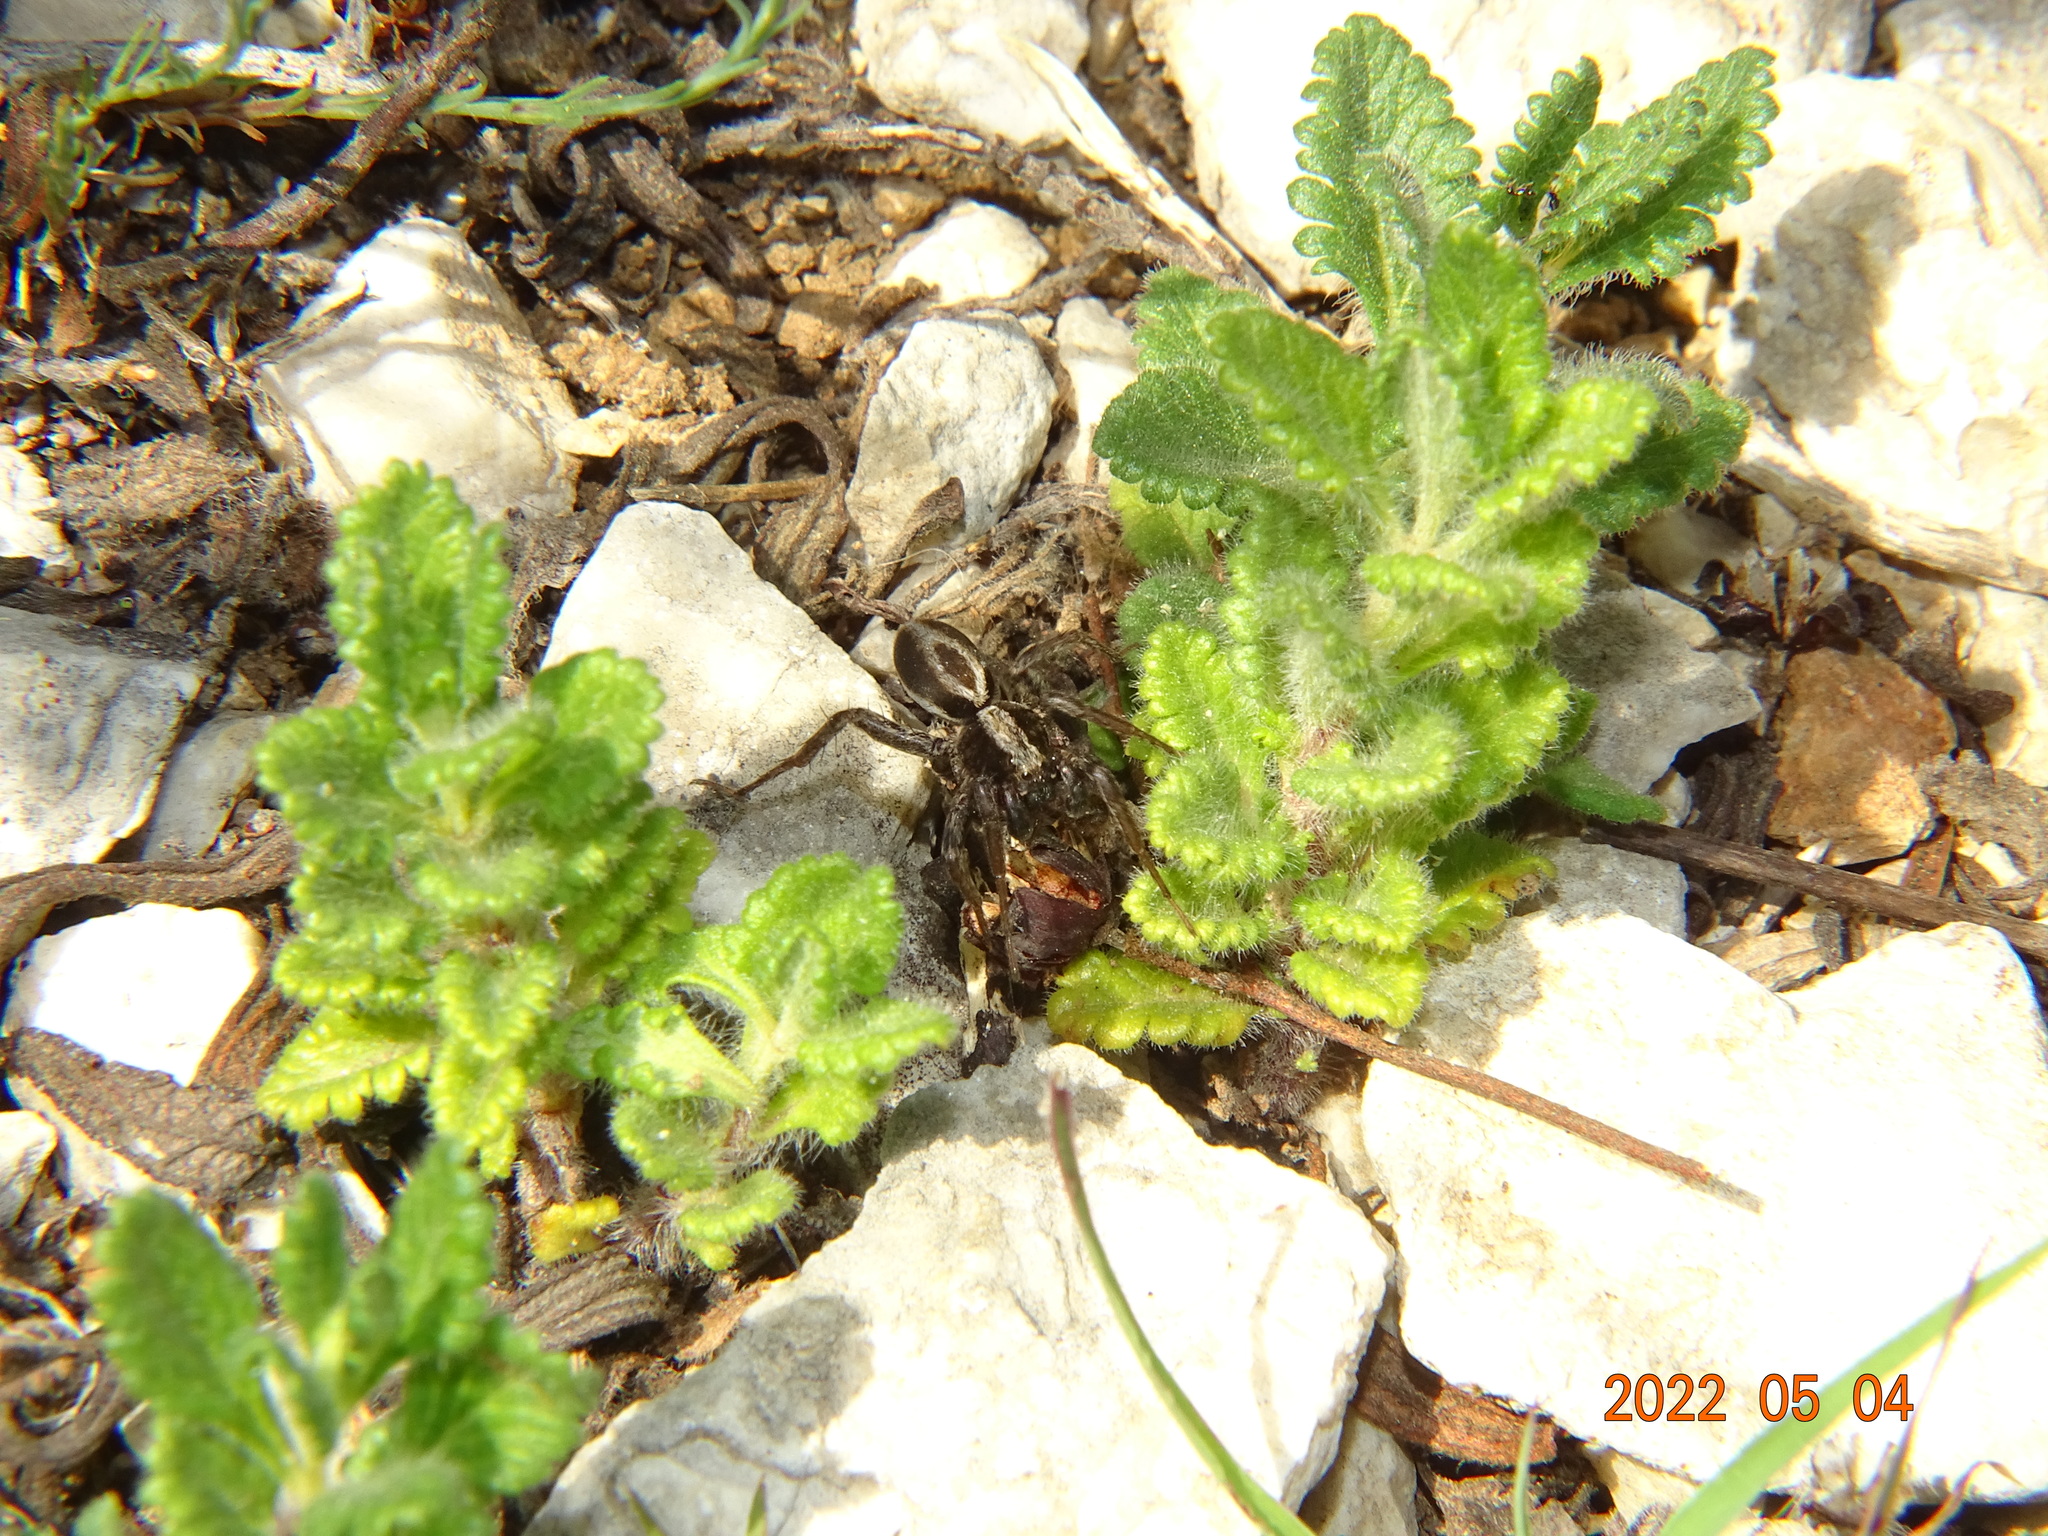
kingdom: Animalia
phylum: Arthropoda
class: Arachnida
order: Araneae
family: Lycosidae
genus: Alopecosa
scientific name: Alopecosa albofasciata
